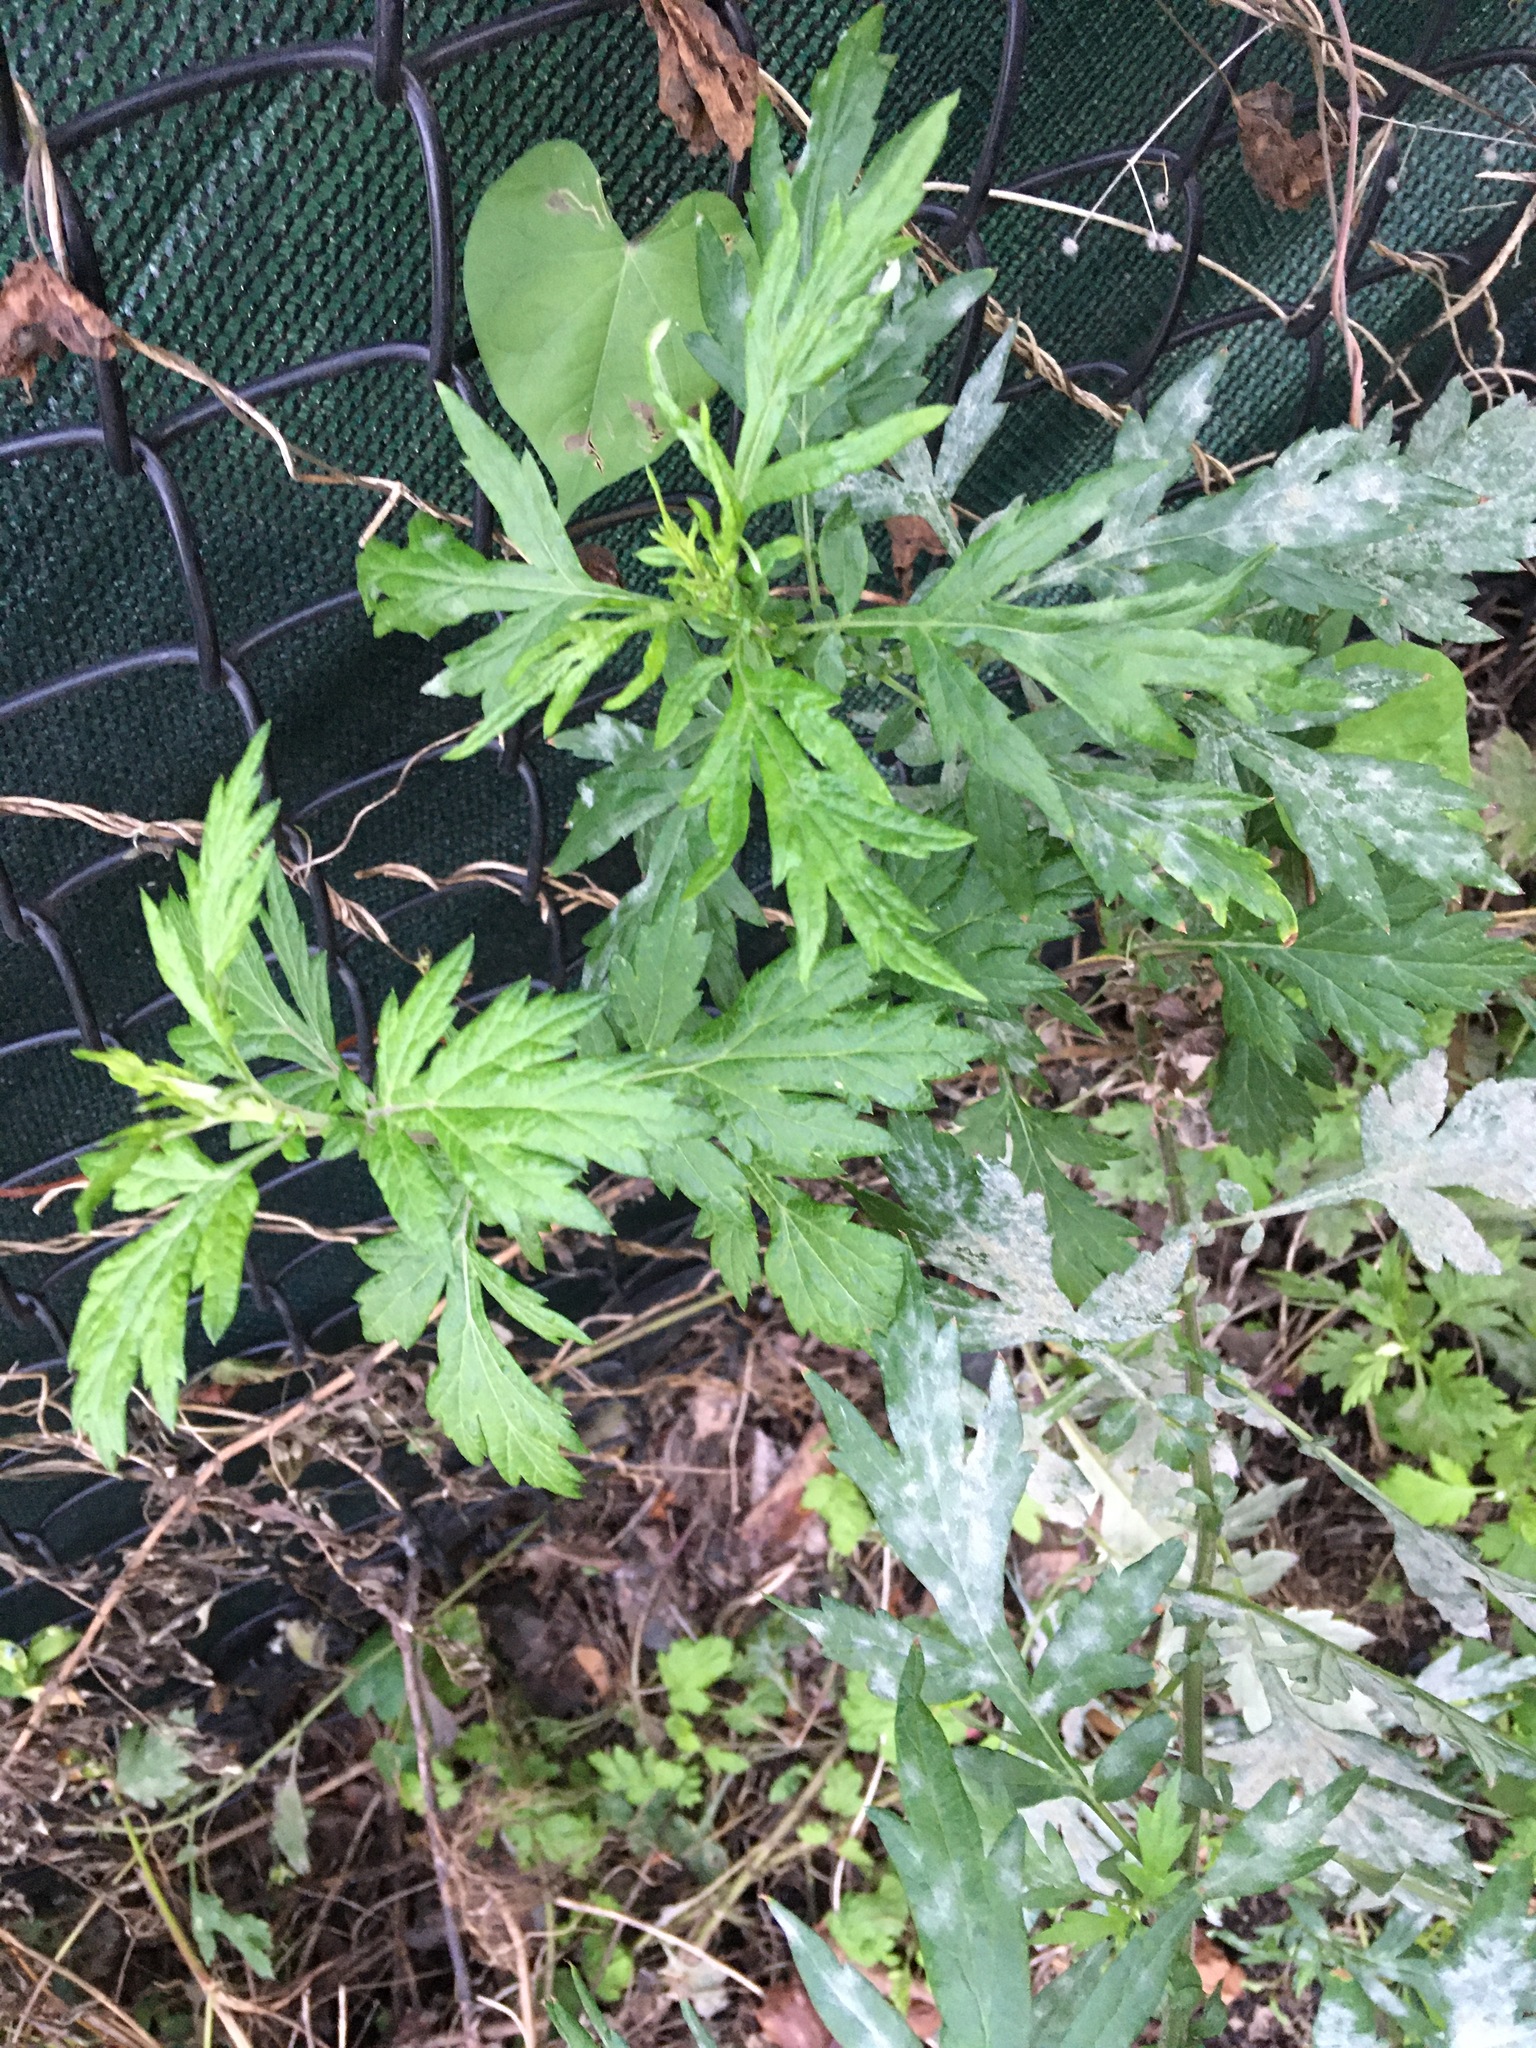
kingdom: Plantae
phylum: Tracheophyta
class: Magnoliopsida
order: Asterales
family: Asteraceae
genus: Artemisia
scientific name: Artemisia vulgaris
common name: Mugwort
